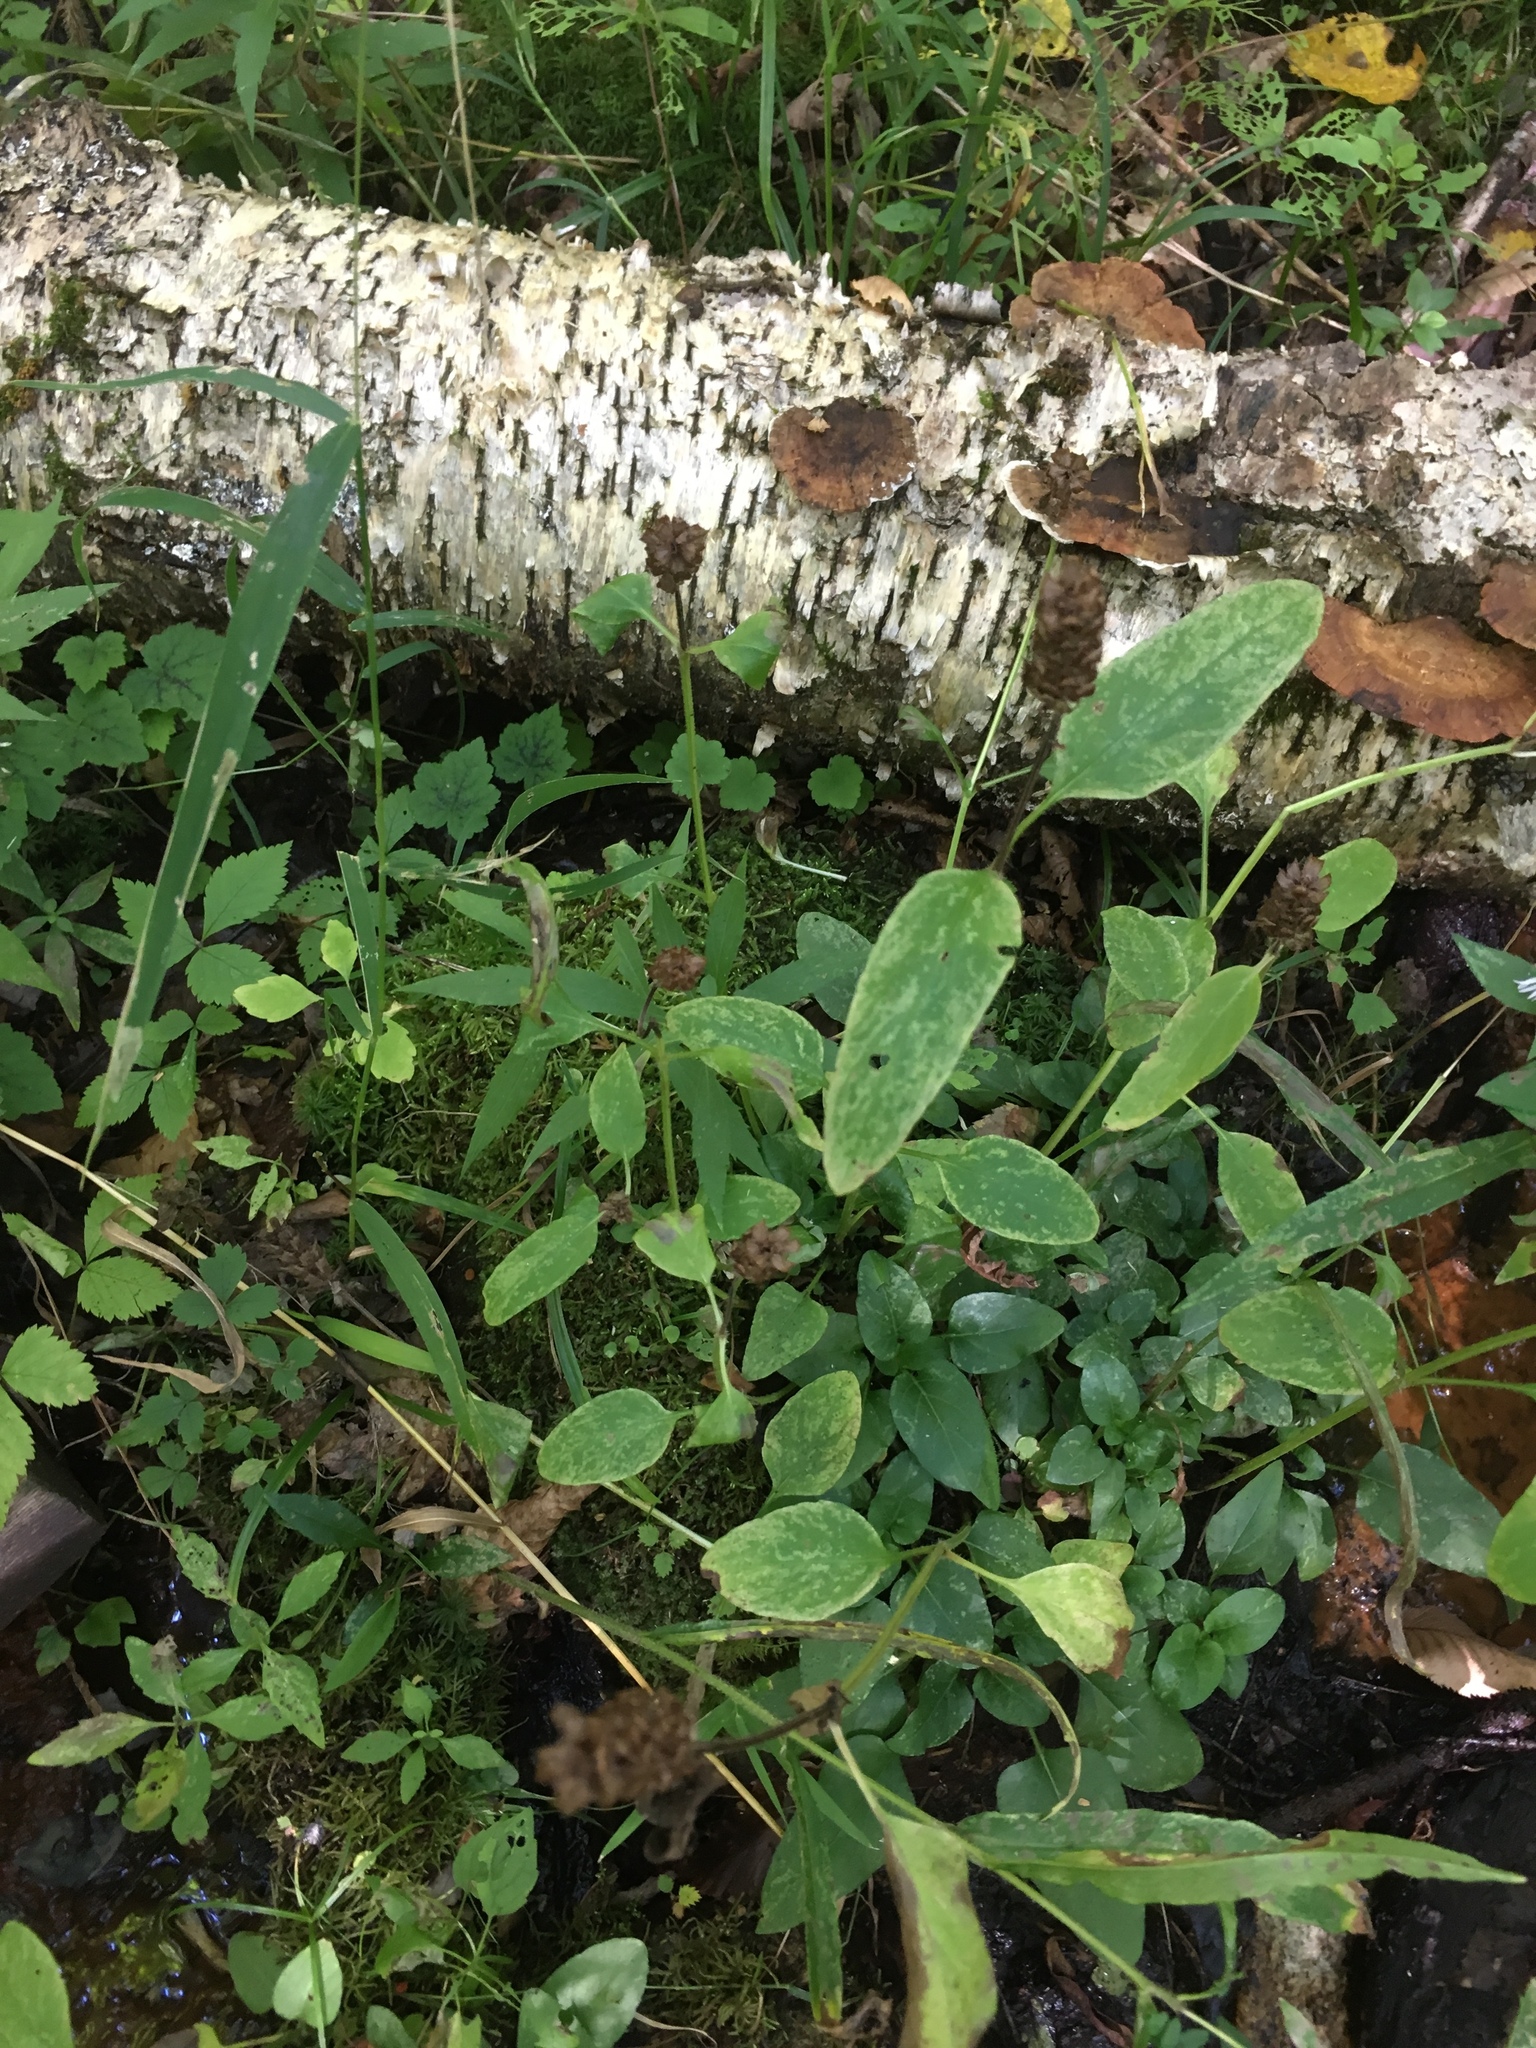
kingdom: Plantae
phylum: Tracheophyta
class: Magnoliopsida
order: Lamiales
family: Lamiaceae
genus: Prunella
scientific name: Prunella vulgaris
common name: Heal-all
